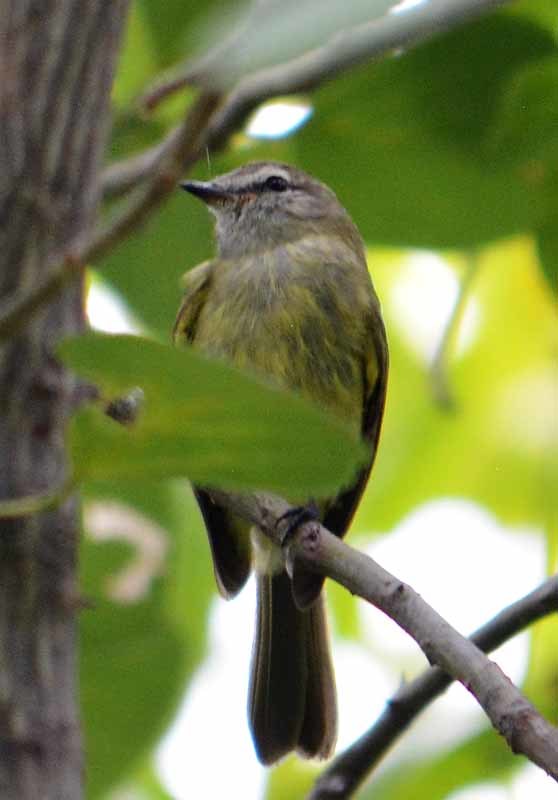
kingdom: Animalia
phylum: Chordata
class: Aves
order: Passeriformes
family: Tyrannidae
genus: Myiopagis
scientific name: Myiopagis viridicata
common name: Greenish elaenia
